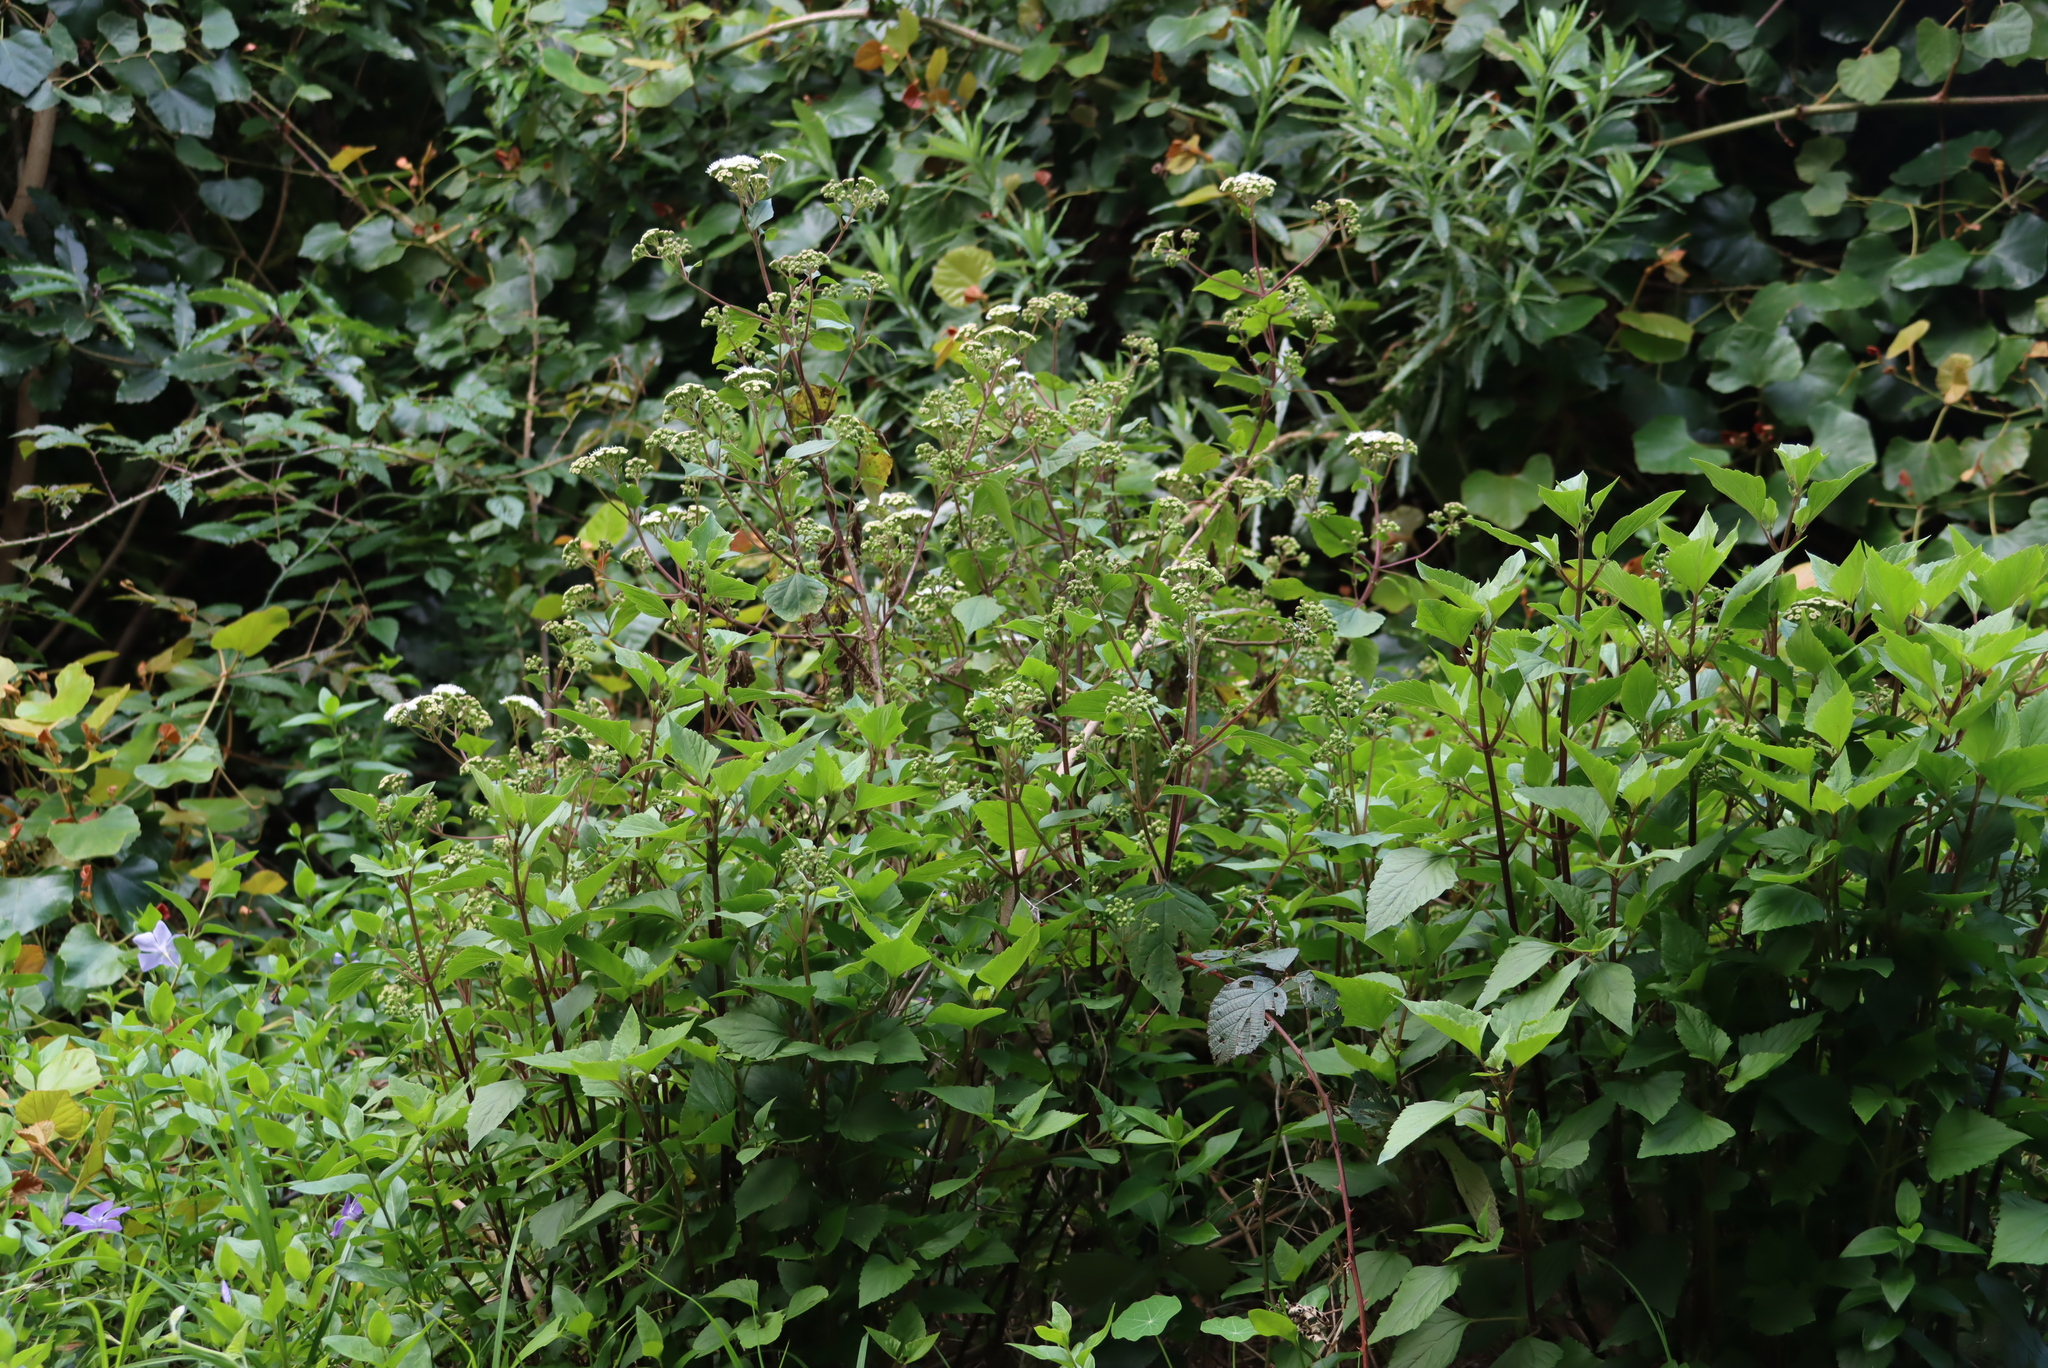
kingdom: Plantae
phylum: Tracheophyta
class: Magnoliopsida
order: Asterales
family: Asteraceae
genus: Ageratina
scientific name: Ageratina adenophora
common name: Sticky snakeroot
